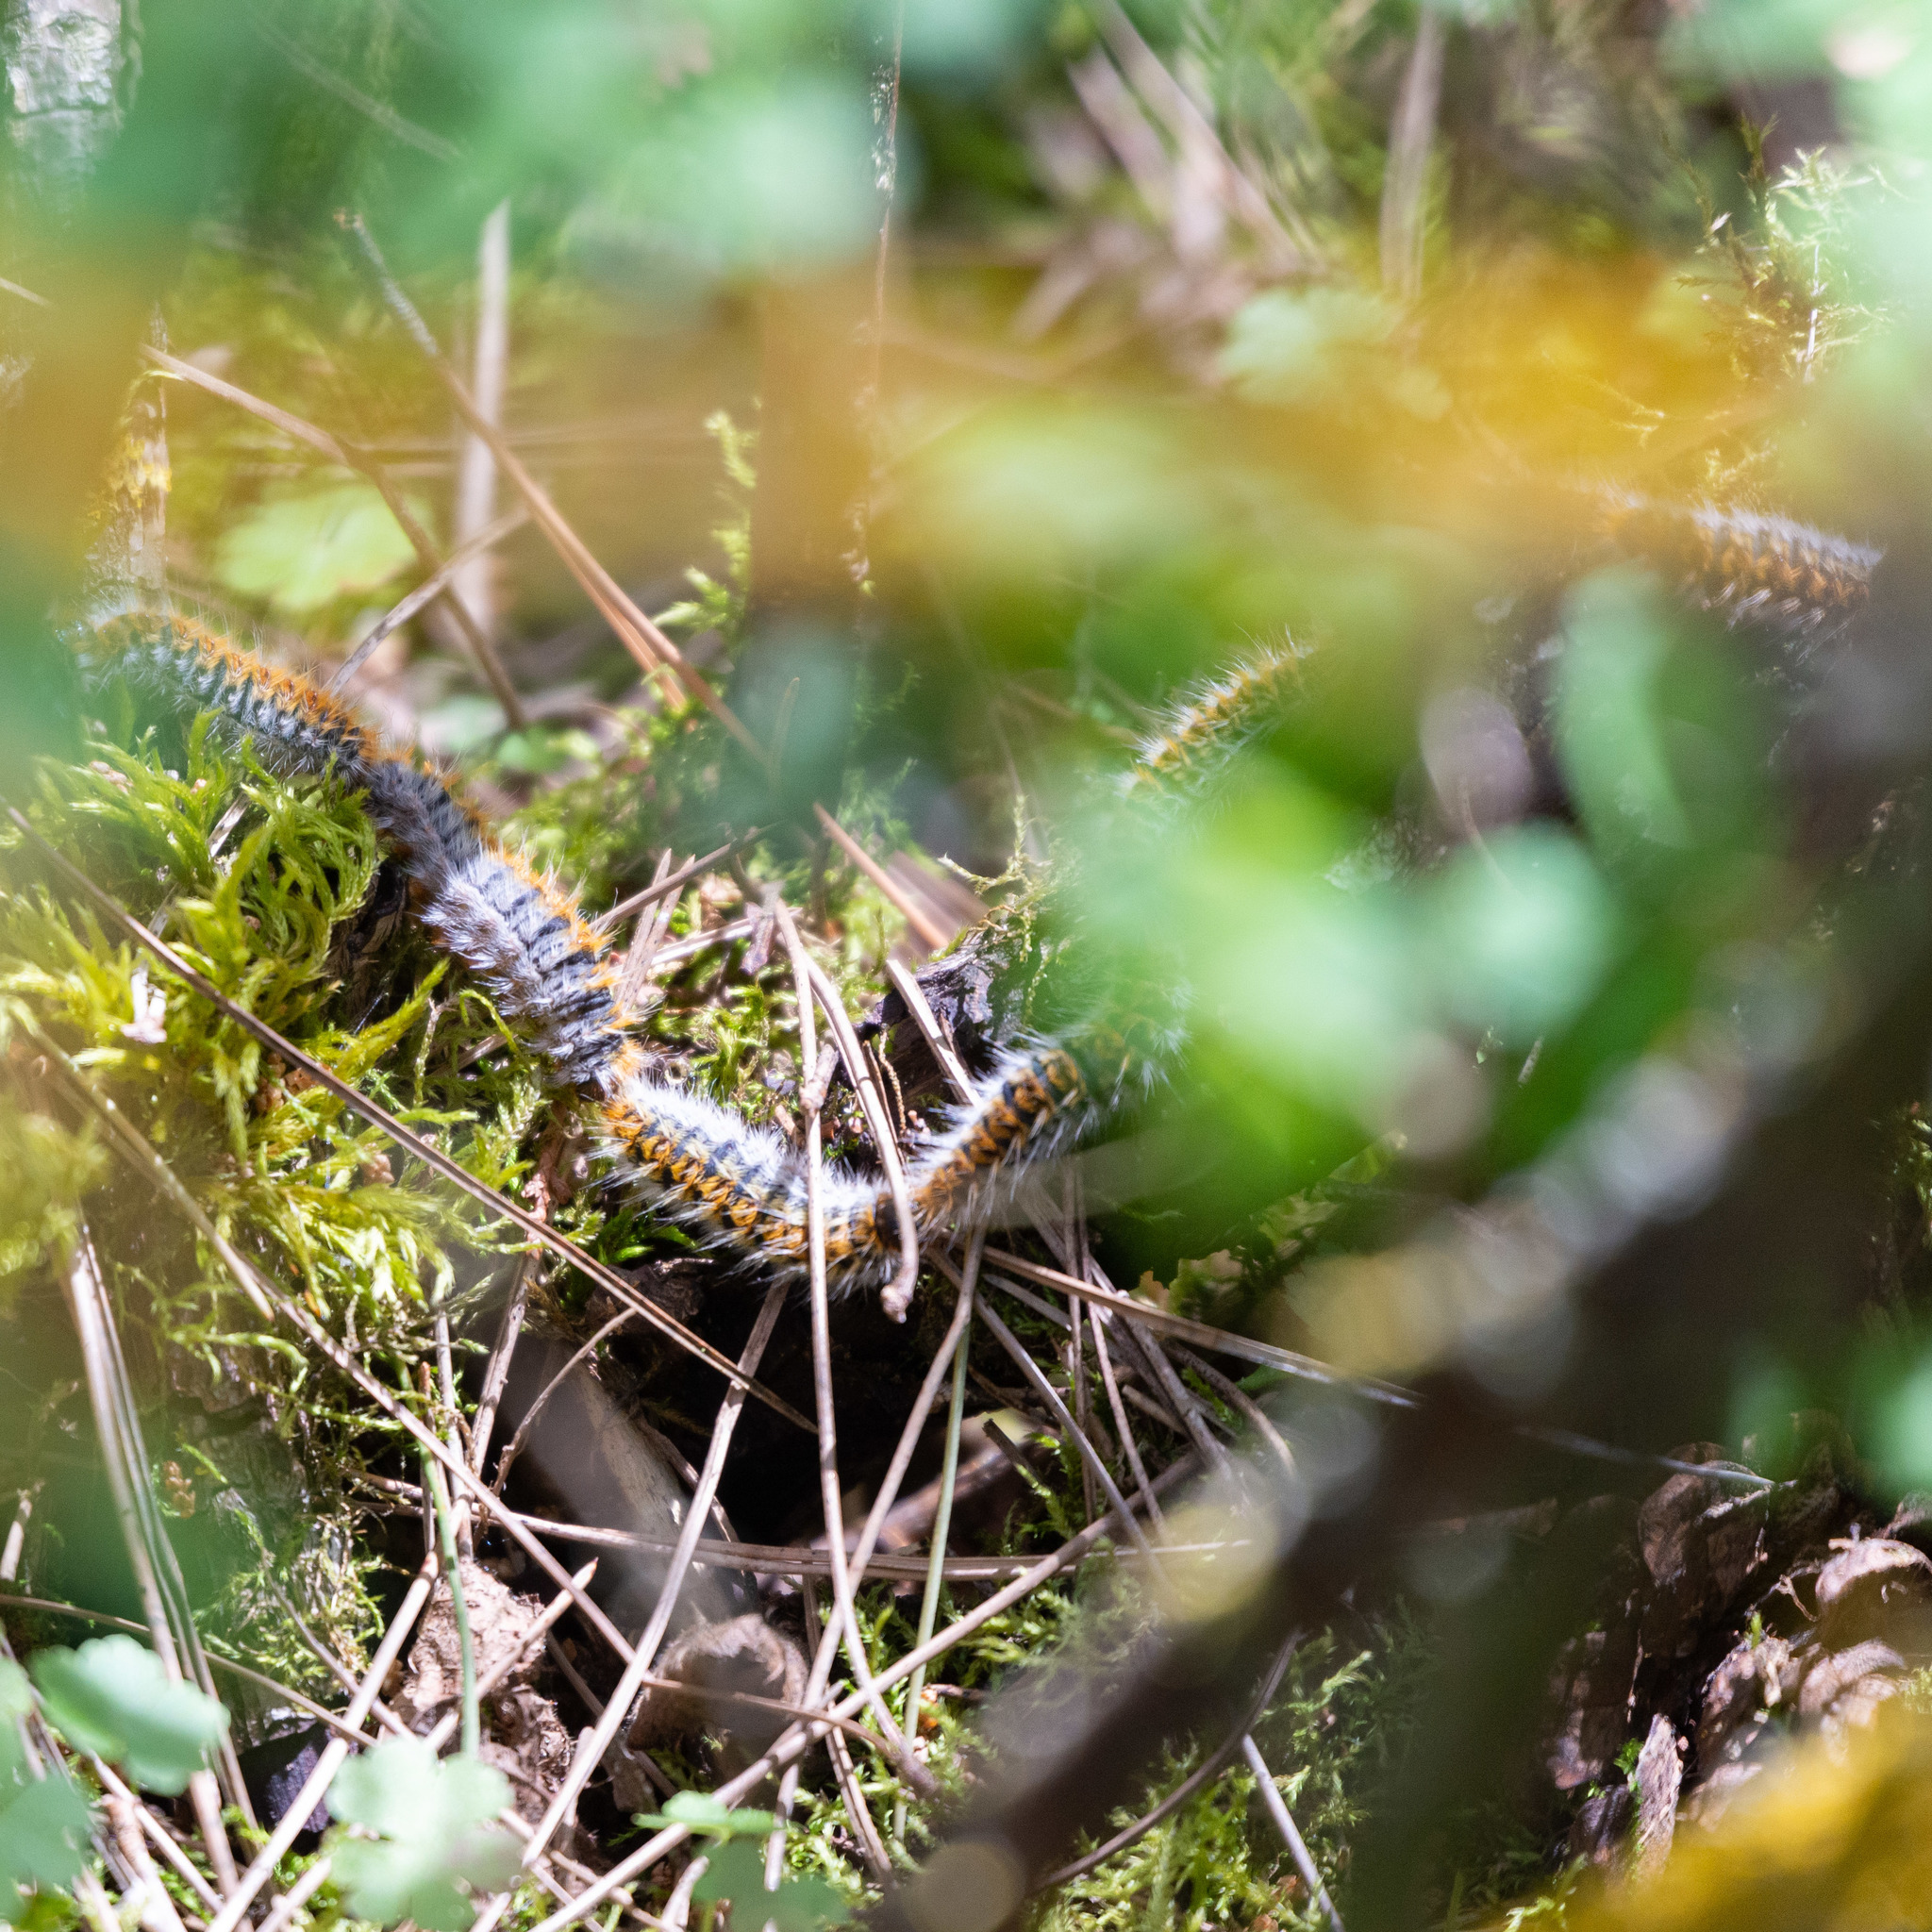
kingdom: Animalia
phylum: Arthropoda
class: Insecta
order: Lepidoptera
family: Notodontidae
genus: Thaumetopoea
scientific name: Thaumetopoea pityocampa
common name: Pine processionary
